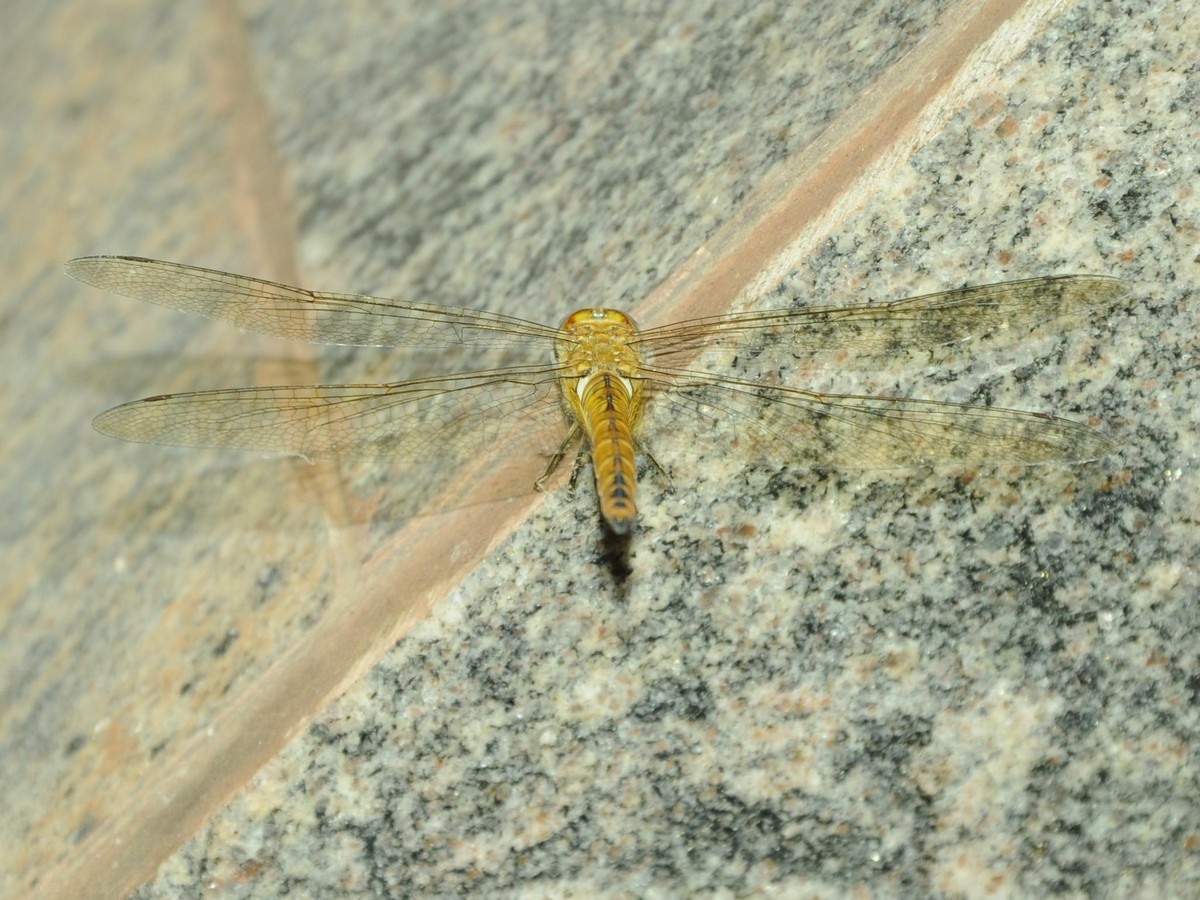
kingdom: Animalia
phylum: Arthropoda
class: Insecta
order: Odonata
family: Libellulidae
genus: Pantala
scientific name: Pantala flavescens
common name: Wandering glider
